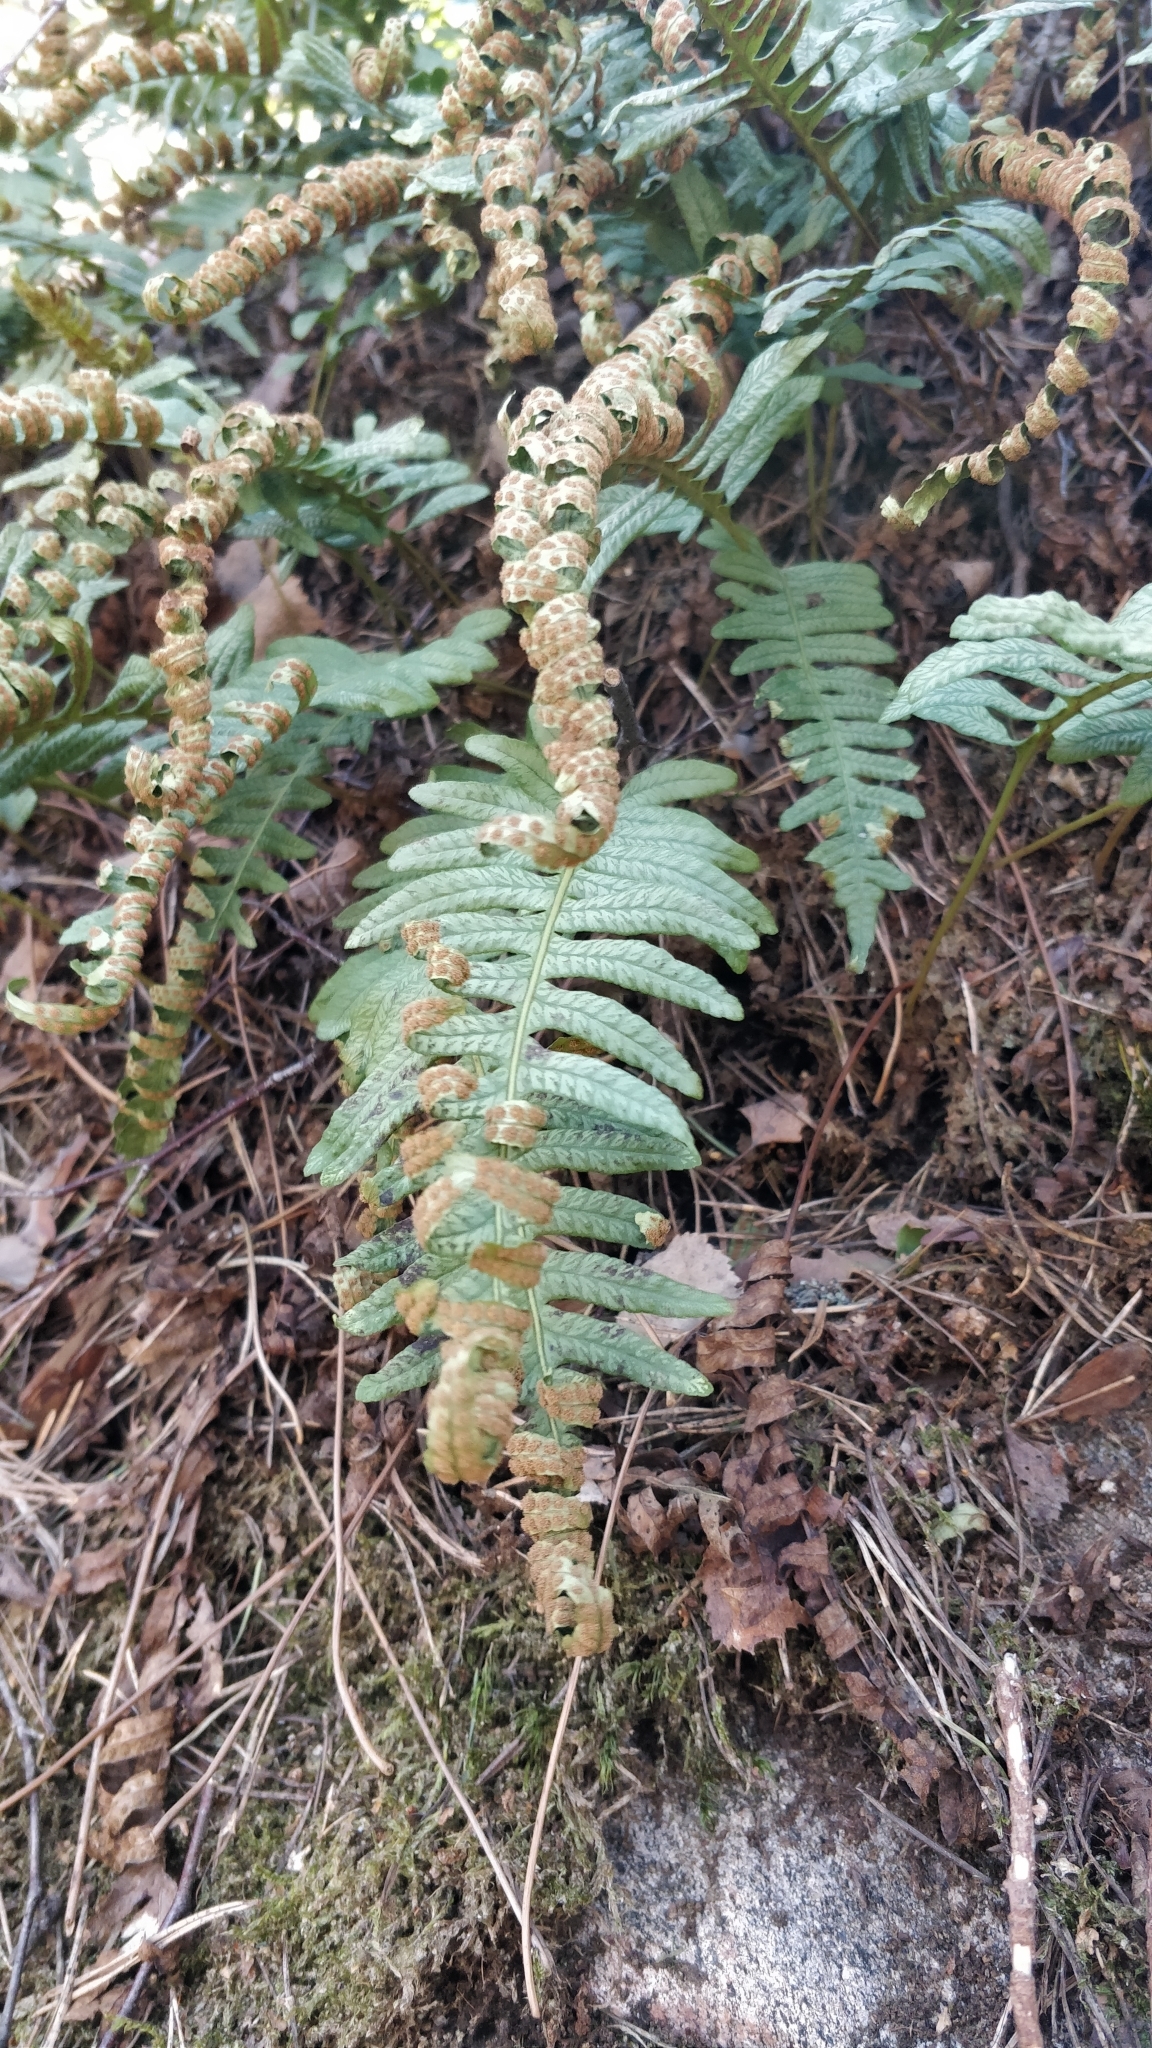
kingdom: Plantae
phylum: Tracheophyta
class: Polypodiopsida
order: Polypodiales
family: Polypodiaceae
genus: Polypodium
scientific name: Polypodium vulgare
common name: Common polypody
